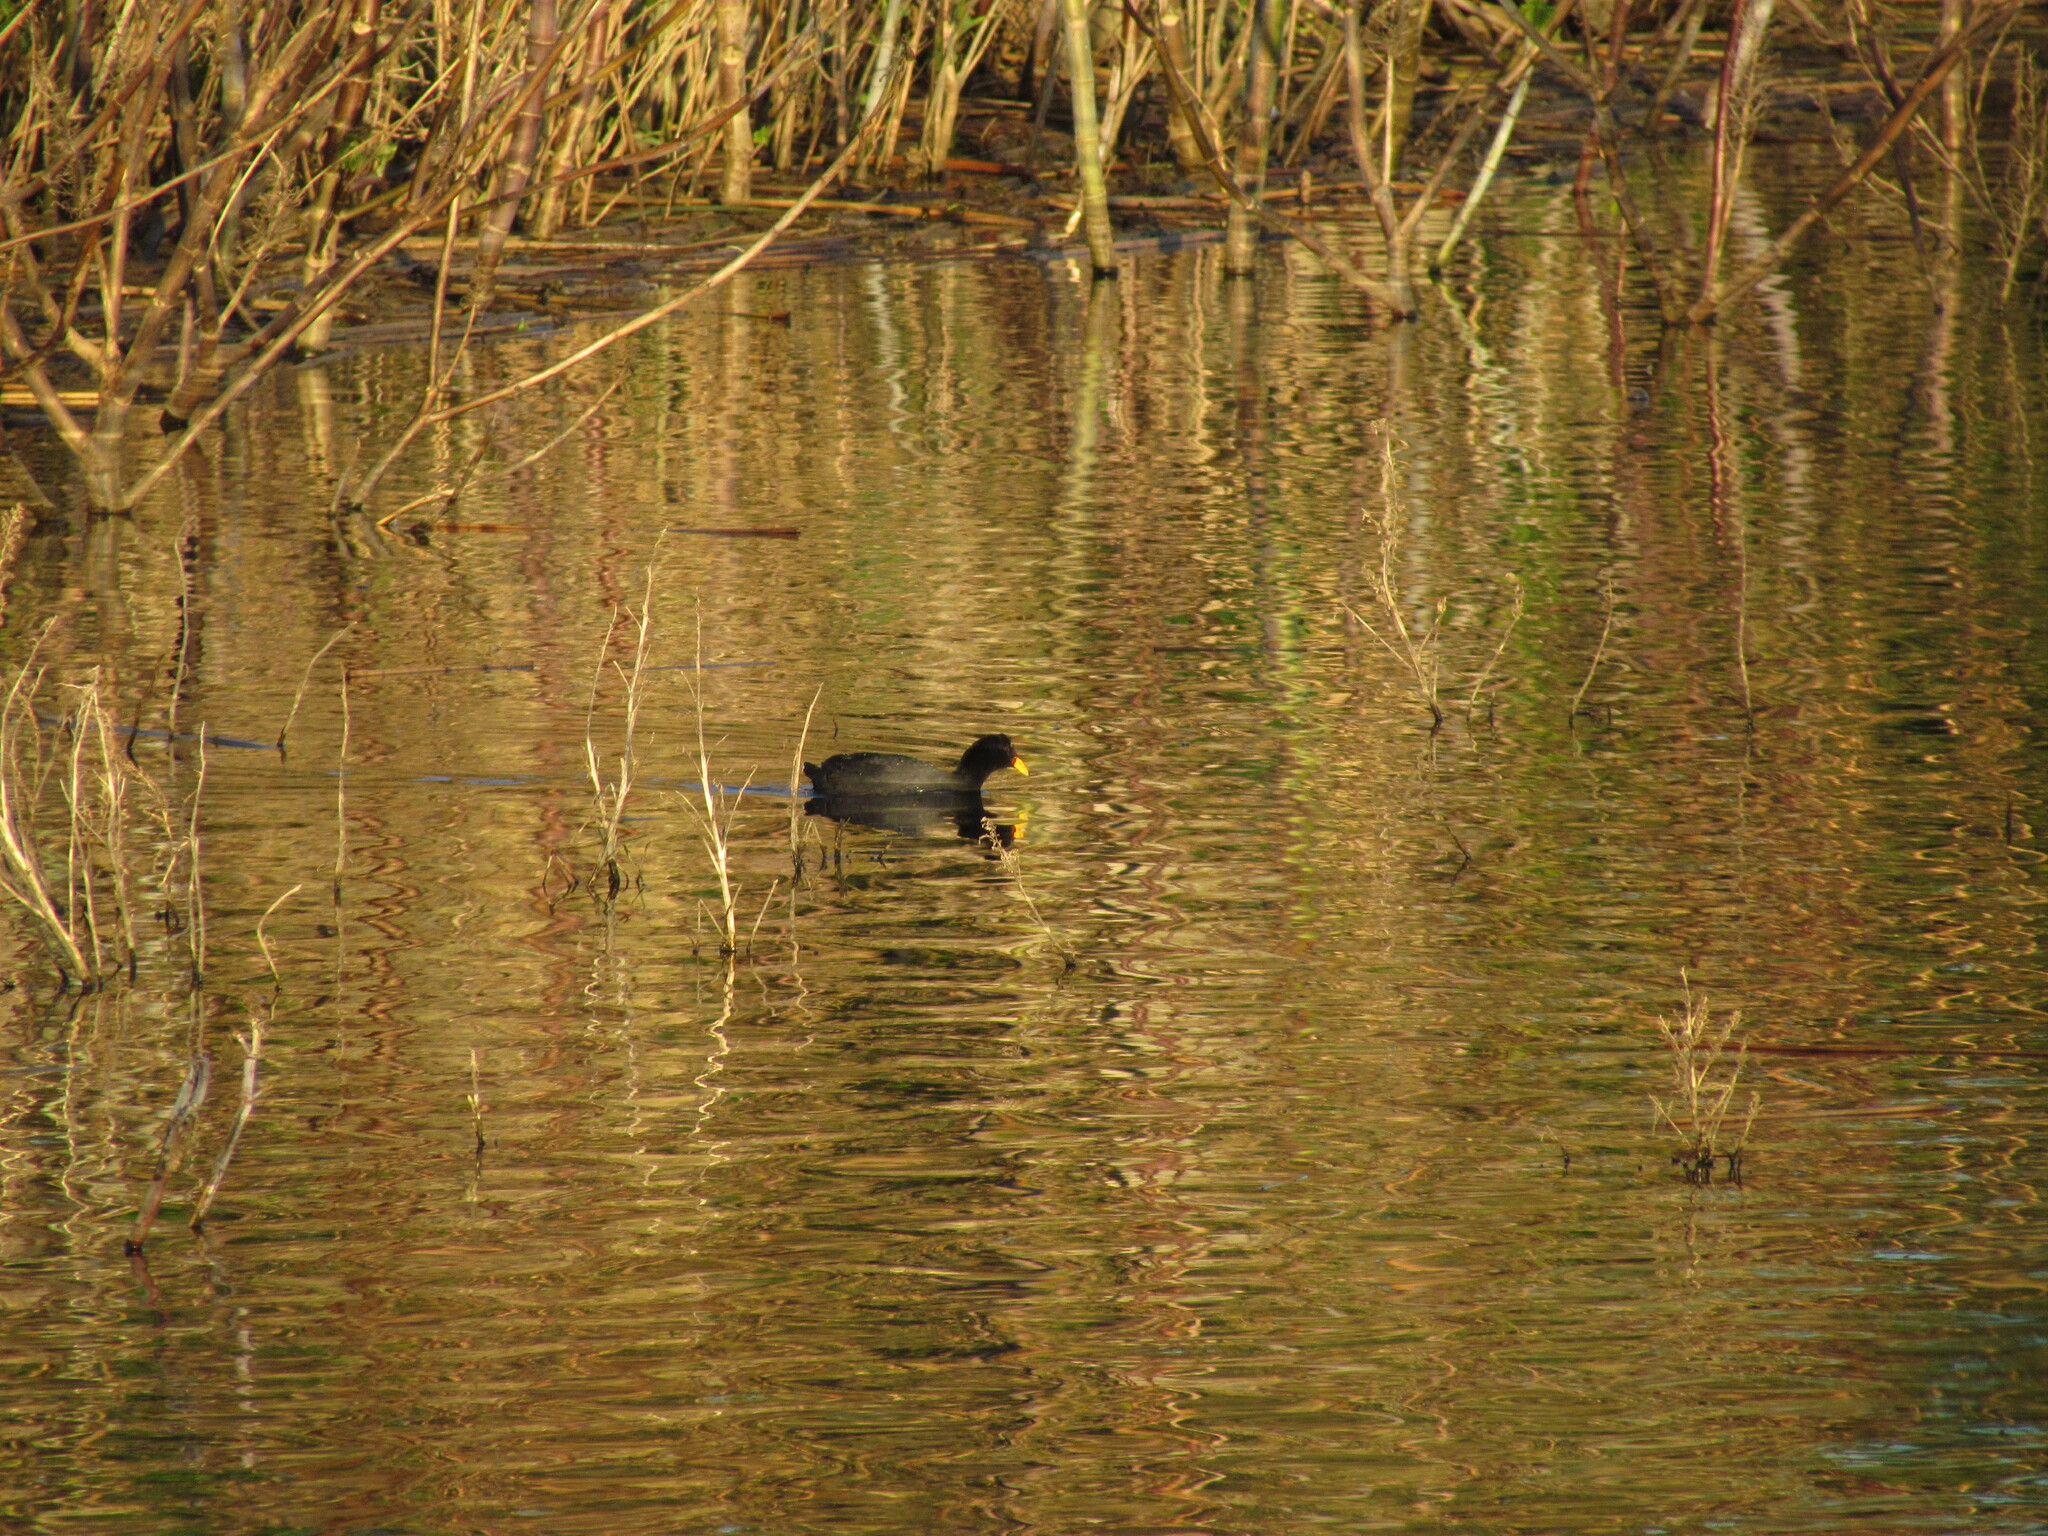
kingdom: Animalia
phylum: Chordata
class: Aves
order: Gruiformes
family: Rallidae
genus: Fulica
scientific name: Fulica rufifrons
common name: Red-fronted coot
